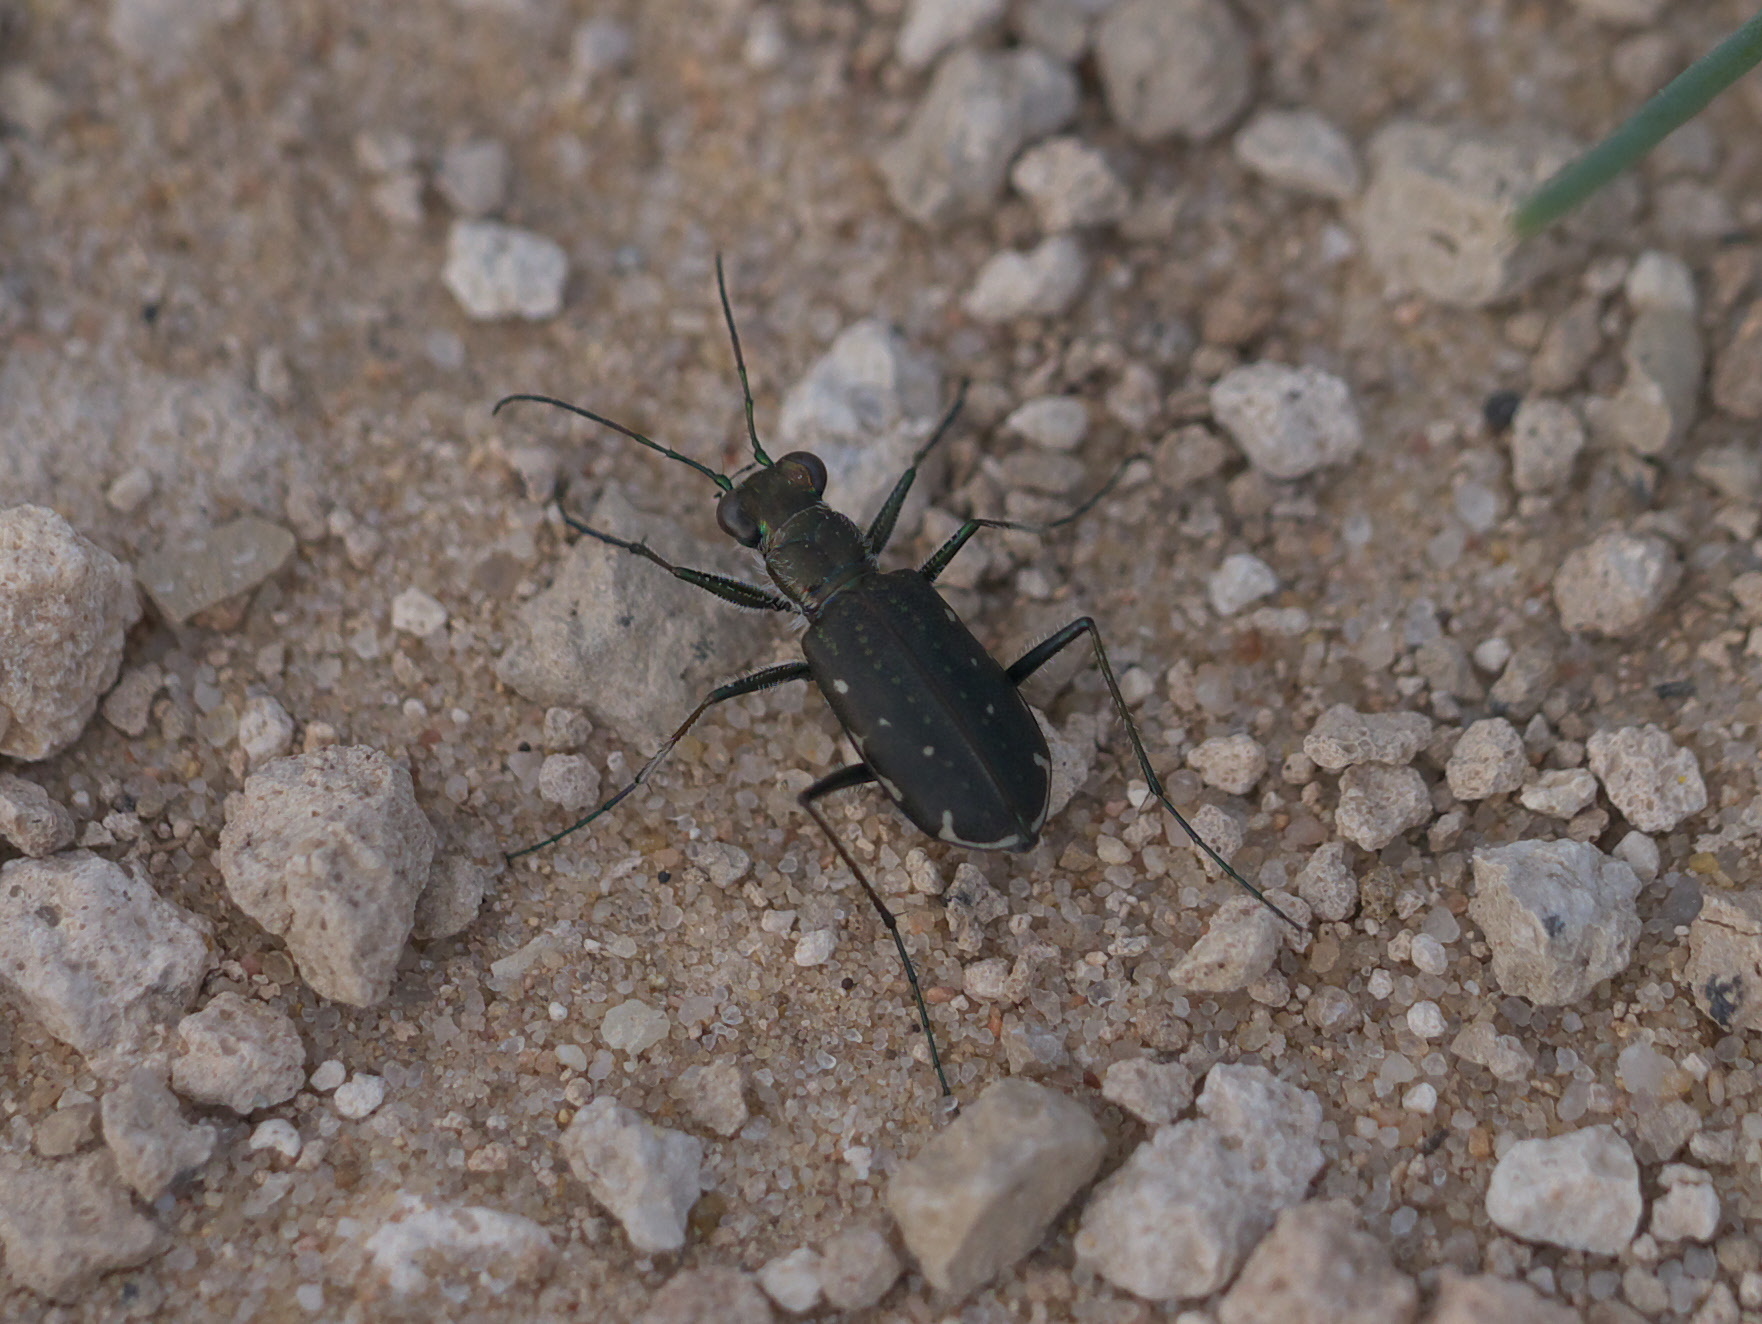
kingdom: Animalia
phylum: Arthropoda
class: Insecta
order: Coleoptera
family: Carabidae
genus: Cicindela
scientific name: Cicindela punctulata
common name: Punctured tiger beetle
